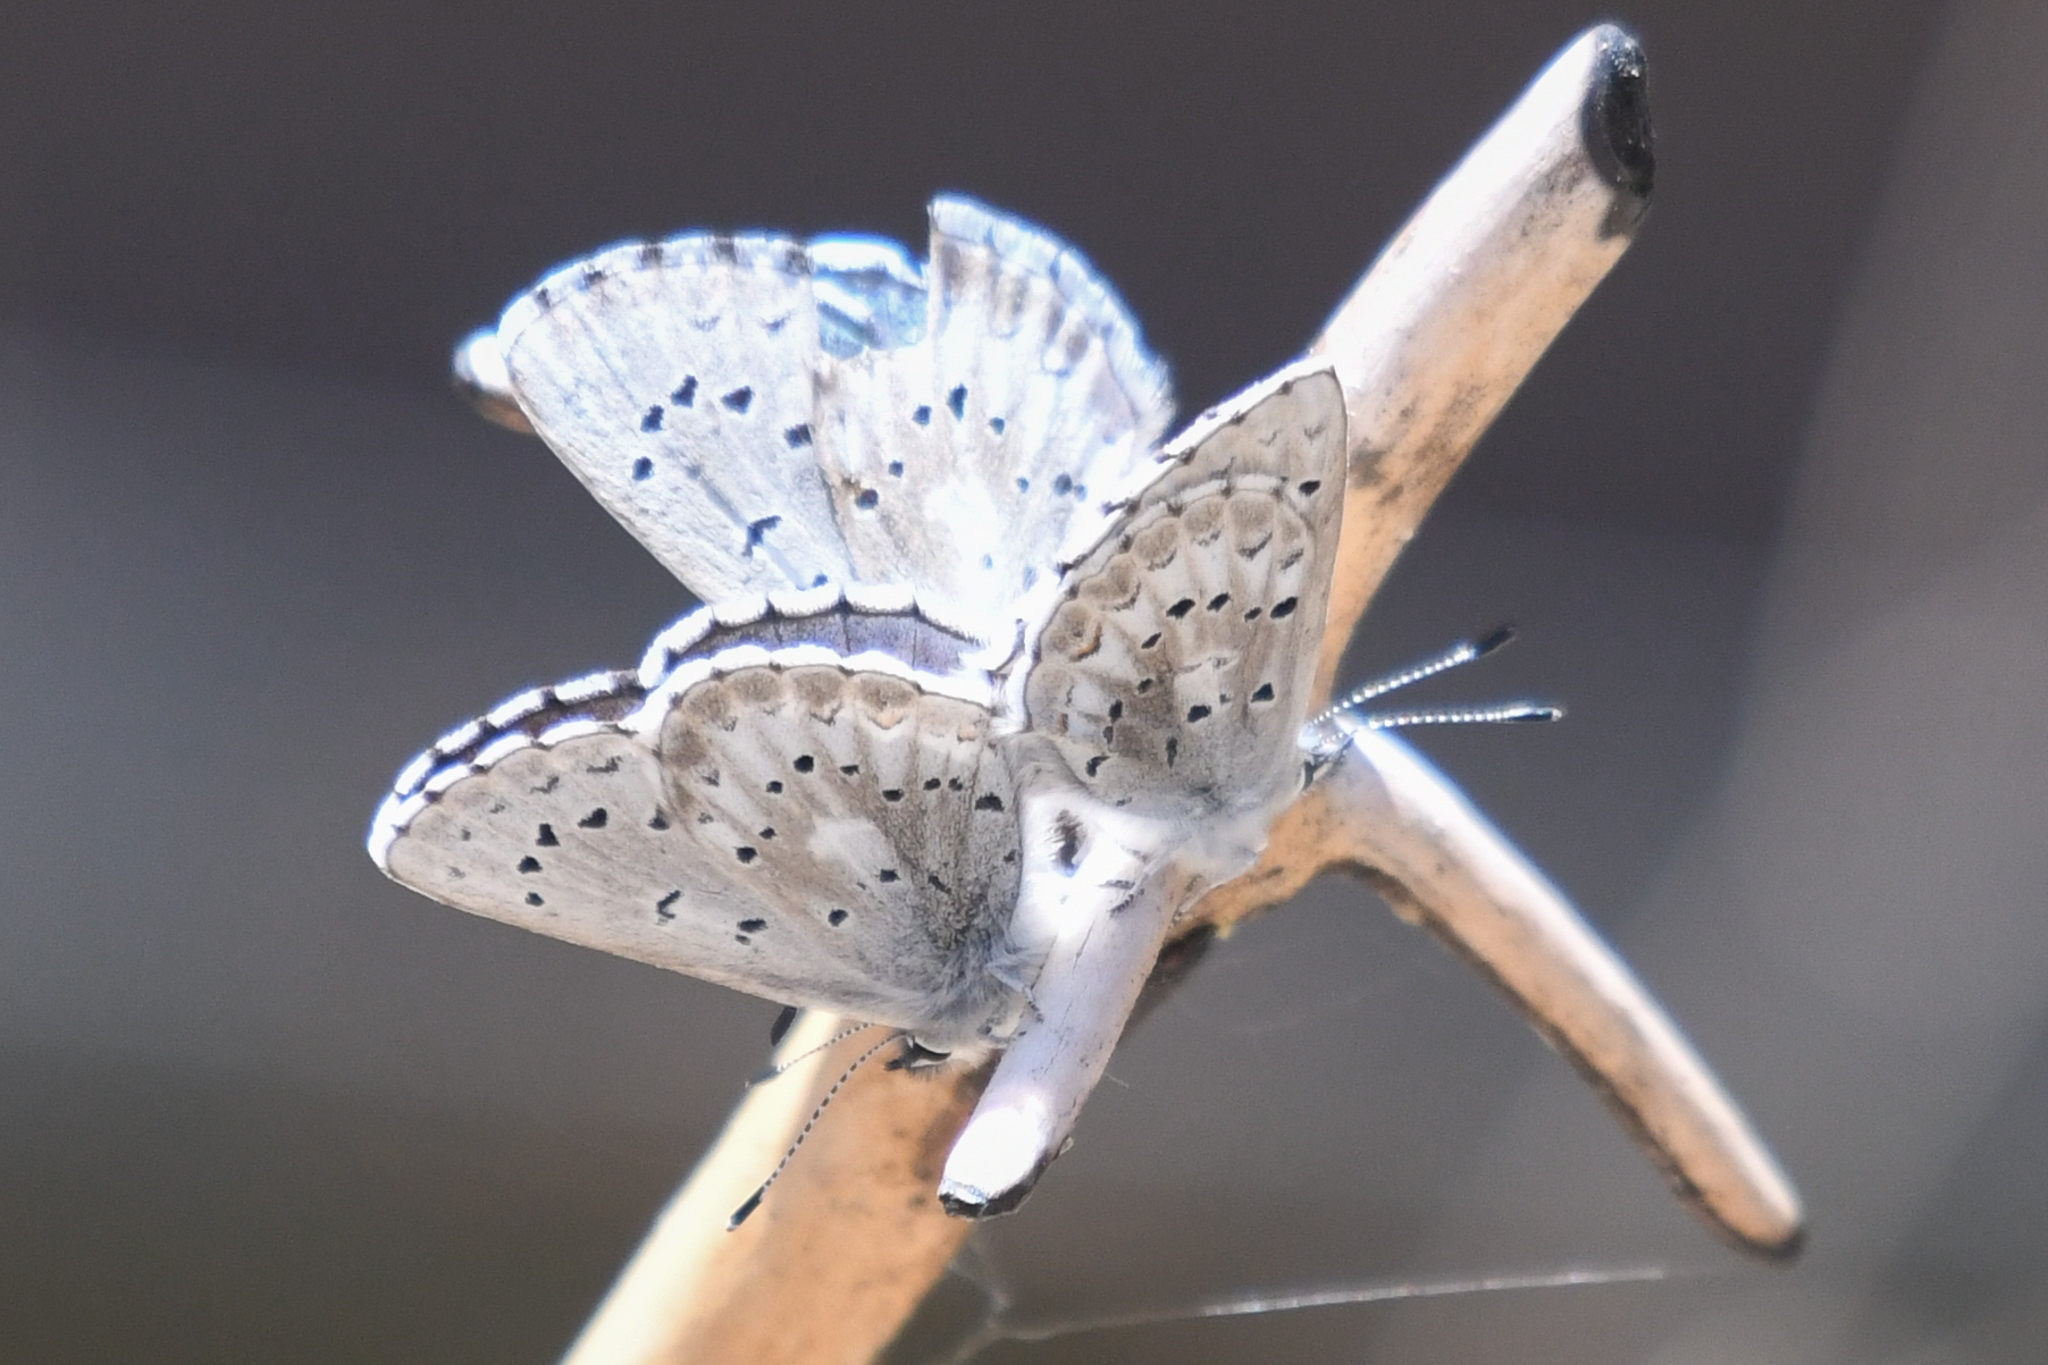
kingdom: Animalia
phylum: Arthropoda
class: Insecta
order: Lepidoptera
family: Lycaenidae
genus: Glaucopsyche
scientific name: Glaucopsyche piasus
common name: Arrowhead blue
